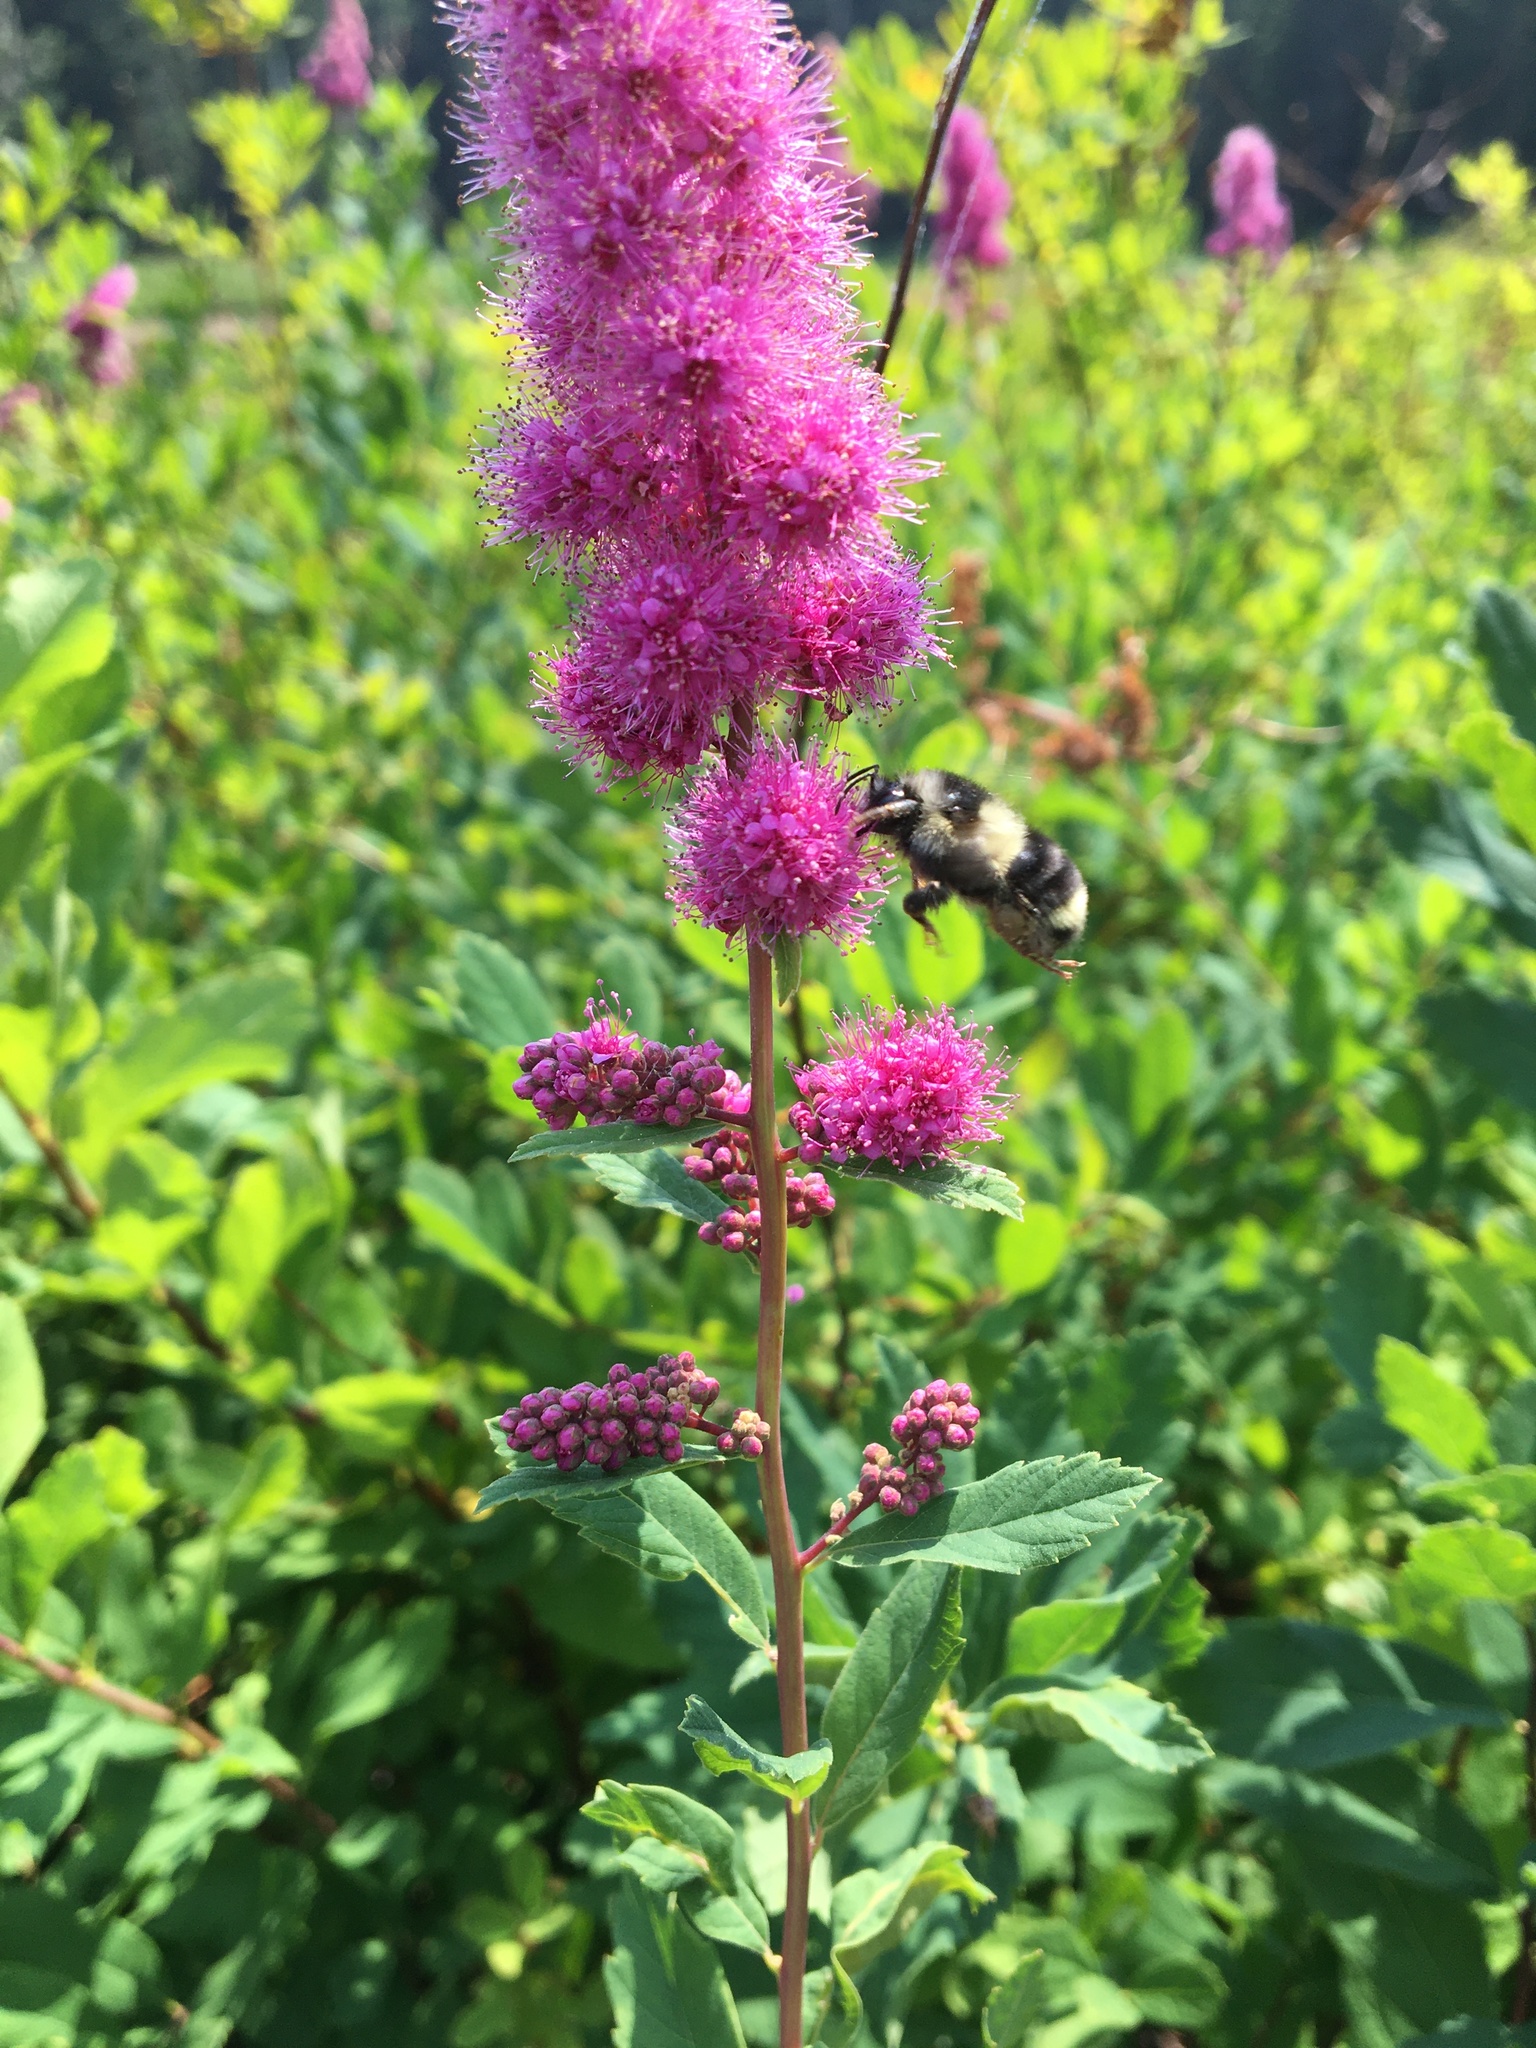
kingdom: Plantae
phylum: Tracheophyta
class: Magnoliopsida
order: Rosales
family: Rosaceae
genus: Spiraea
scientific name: Spiraea douglasii
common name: Steeplebush
